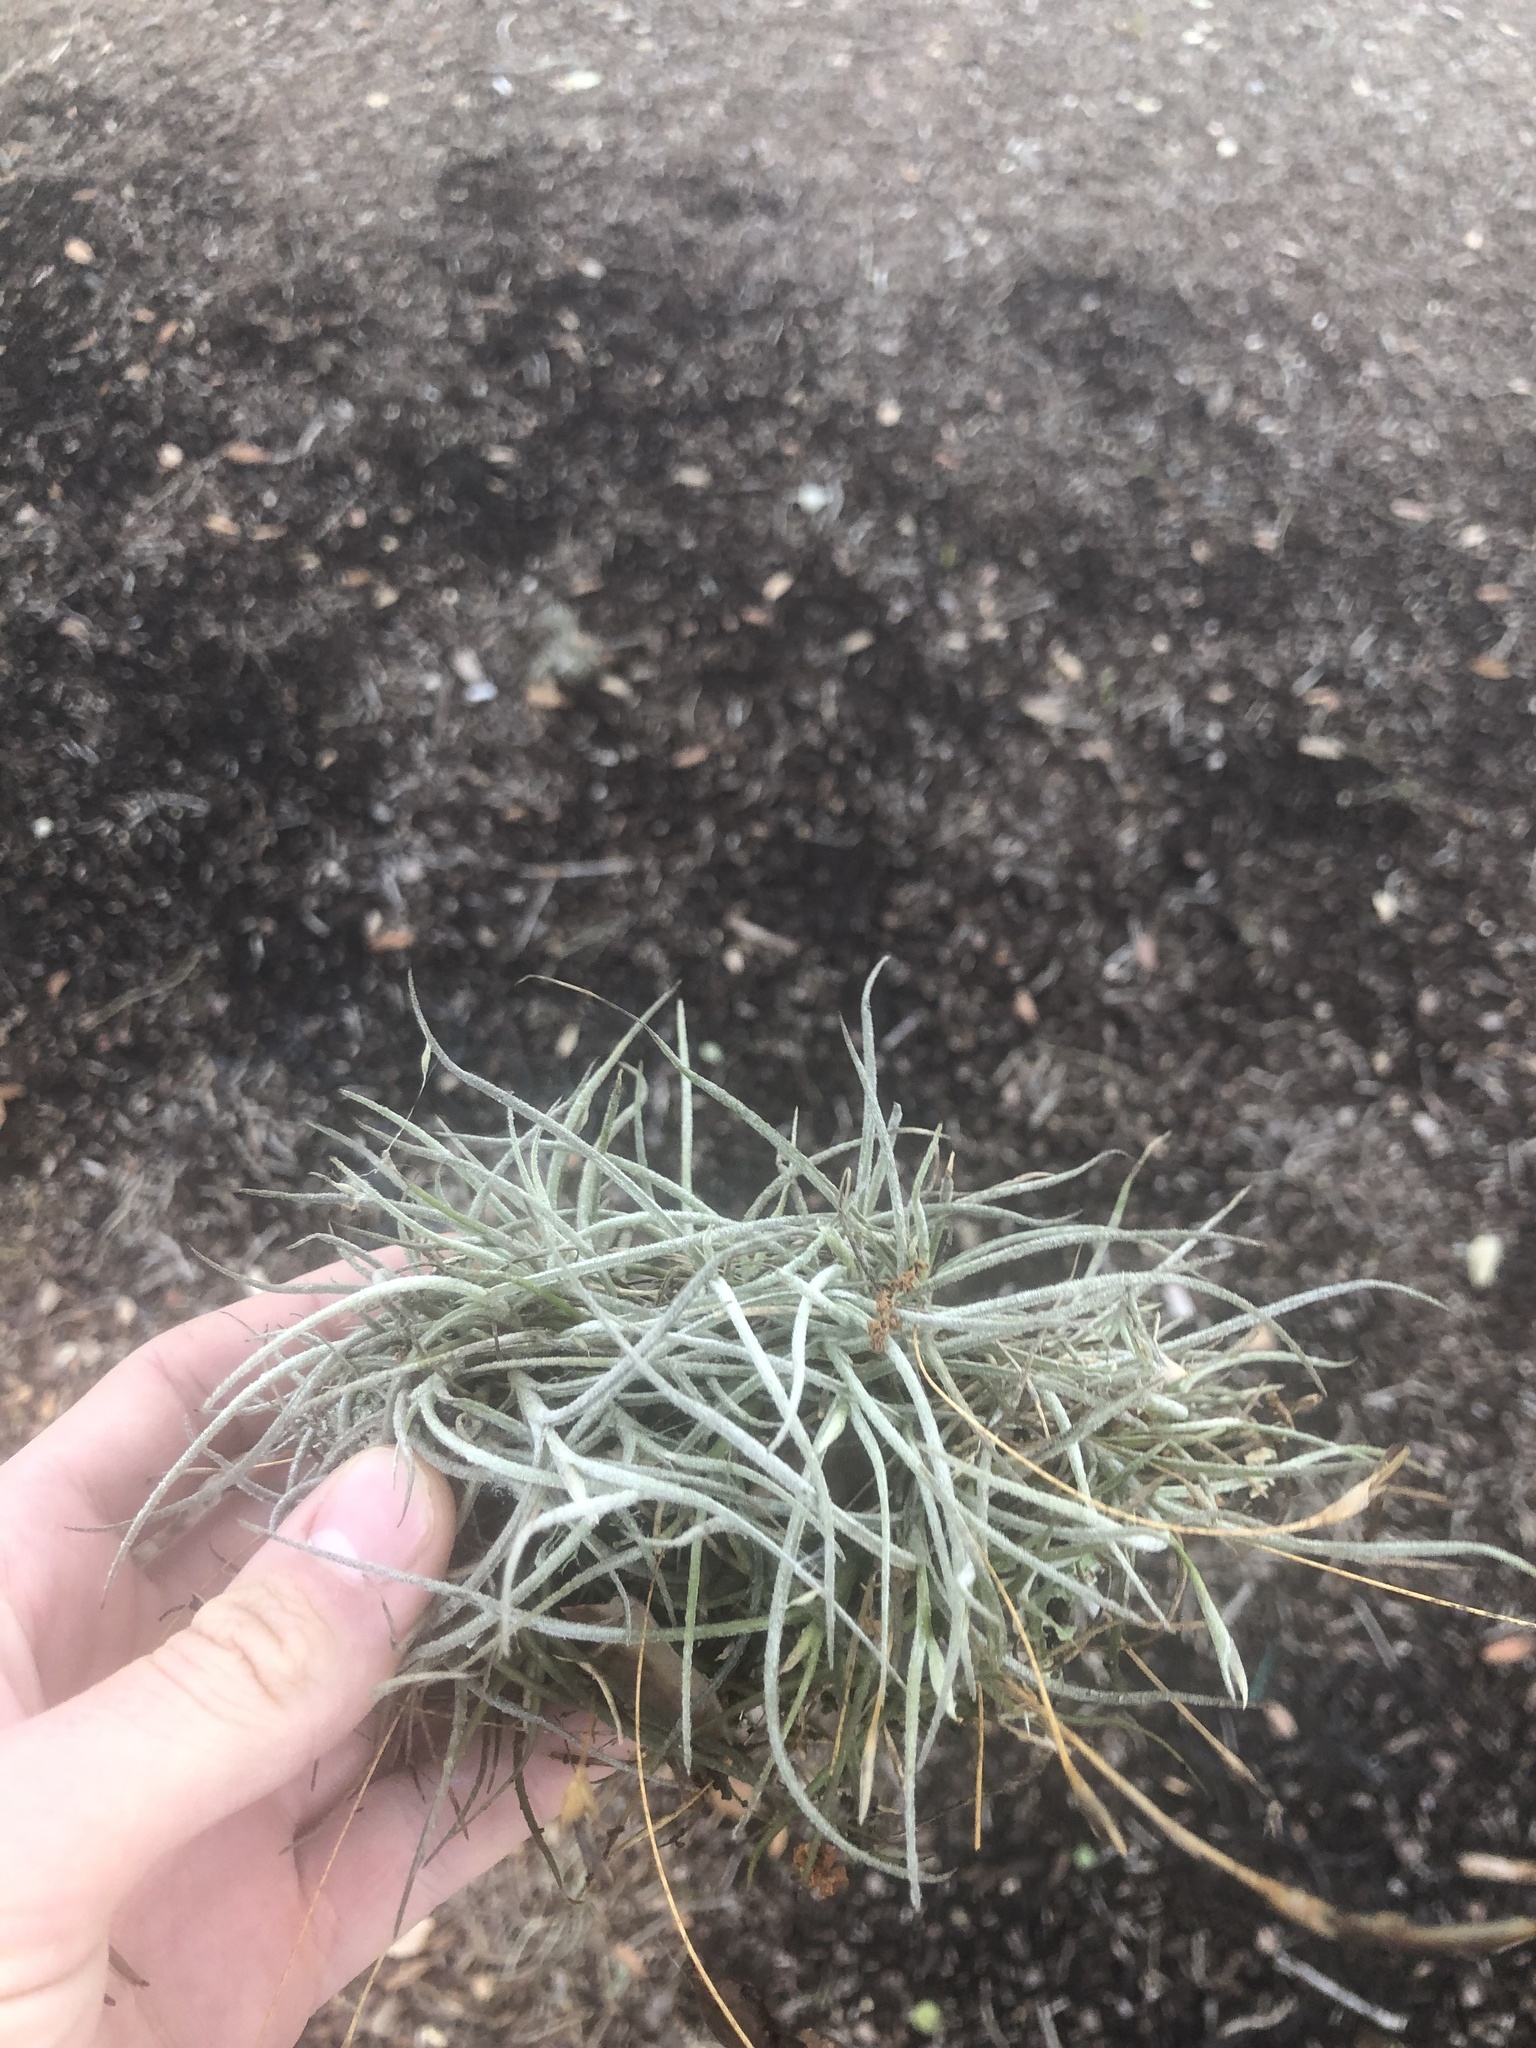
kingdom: Plantae
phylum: Tracheophyta
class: Liliopsida
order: Poales
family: Bromeliaceae
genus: Tillandsia
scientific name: Tillandsia recurvata
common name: Small ballmoss
